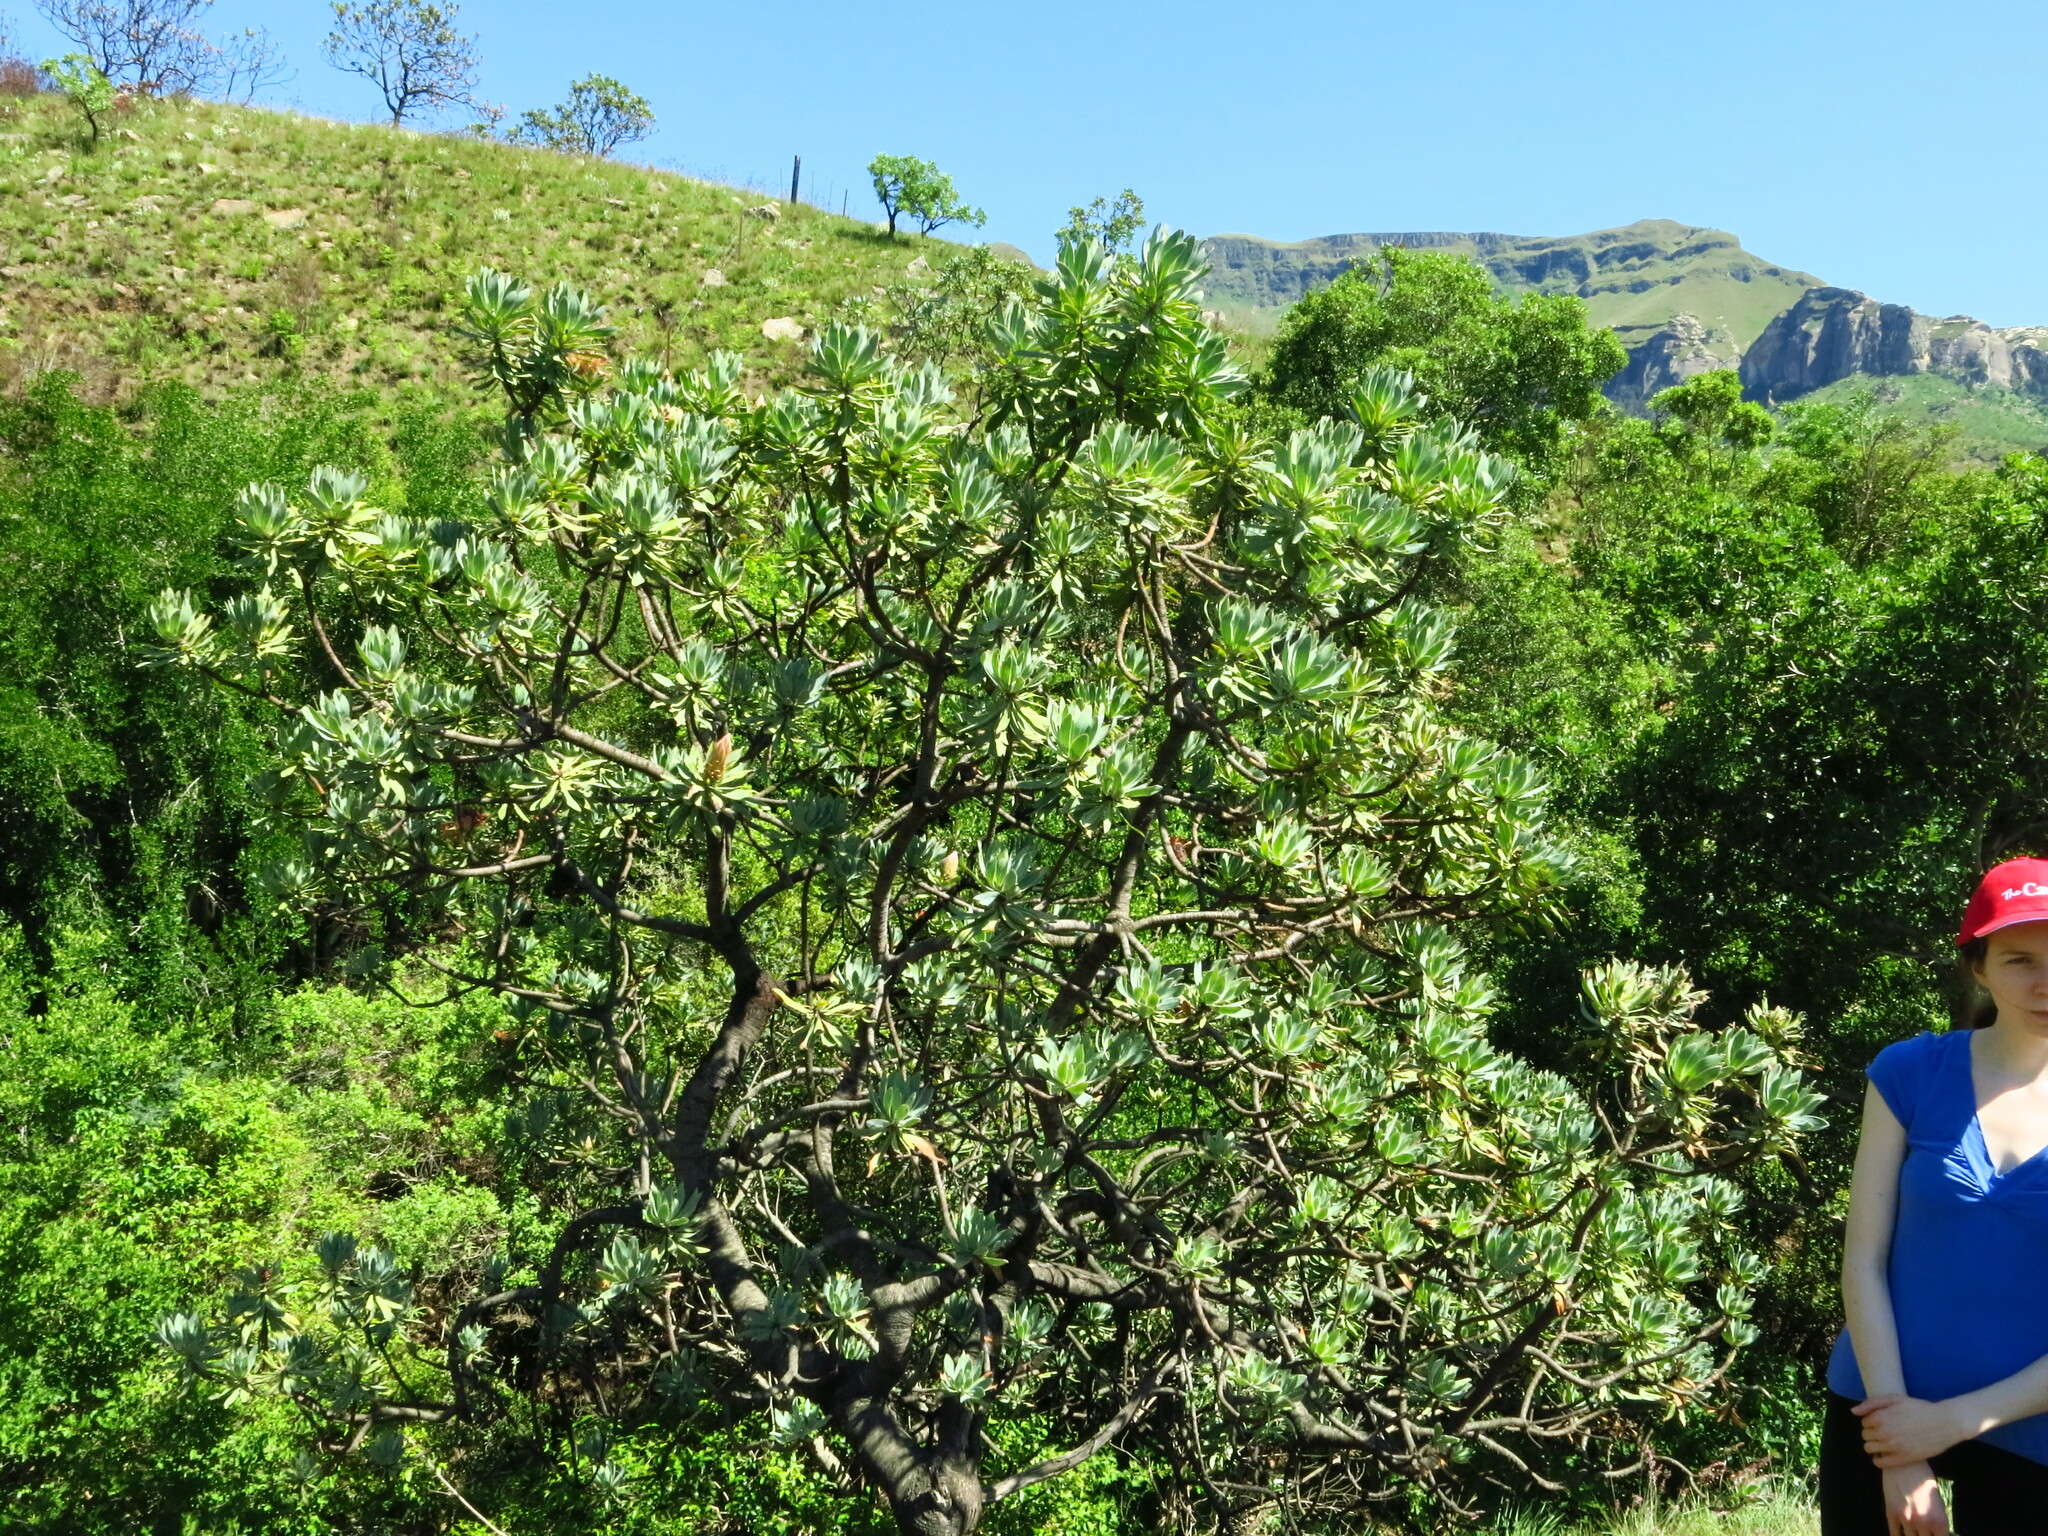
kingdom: Plantae
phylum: Tracheophyta
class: Magnoliopsida
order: Proteales
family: Proteaceae
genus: Protea
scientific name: Protea roupelliae
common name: Silver sugarbush
